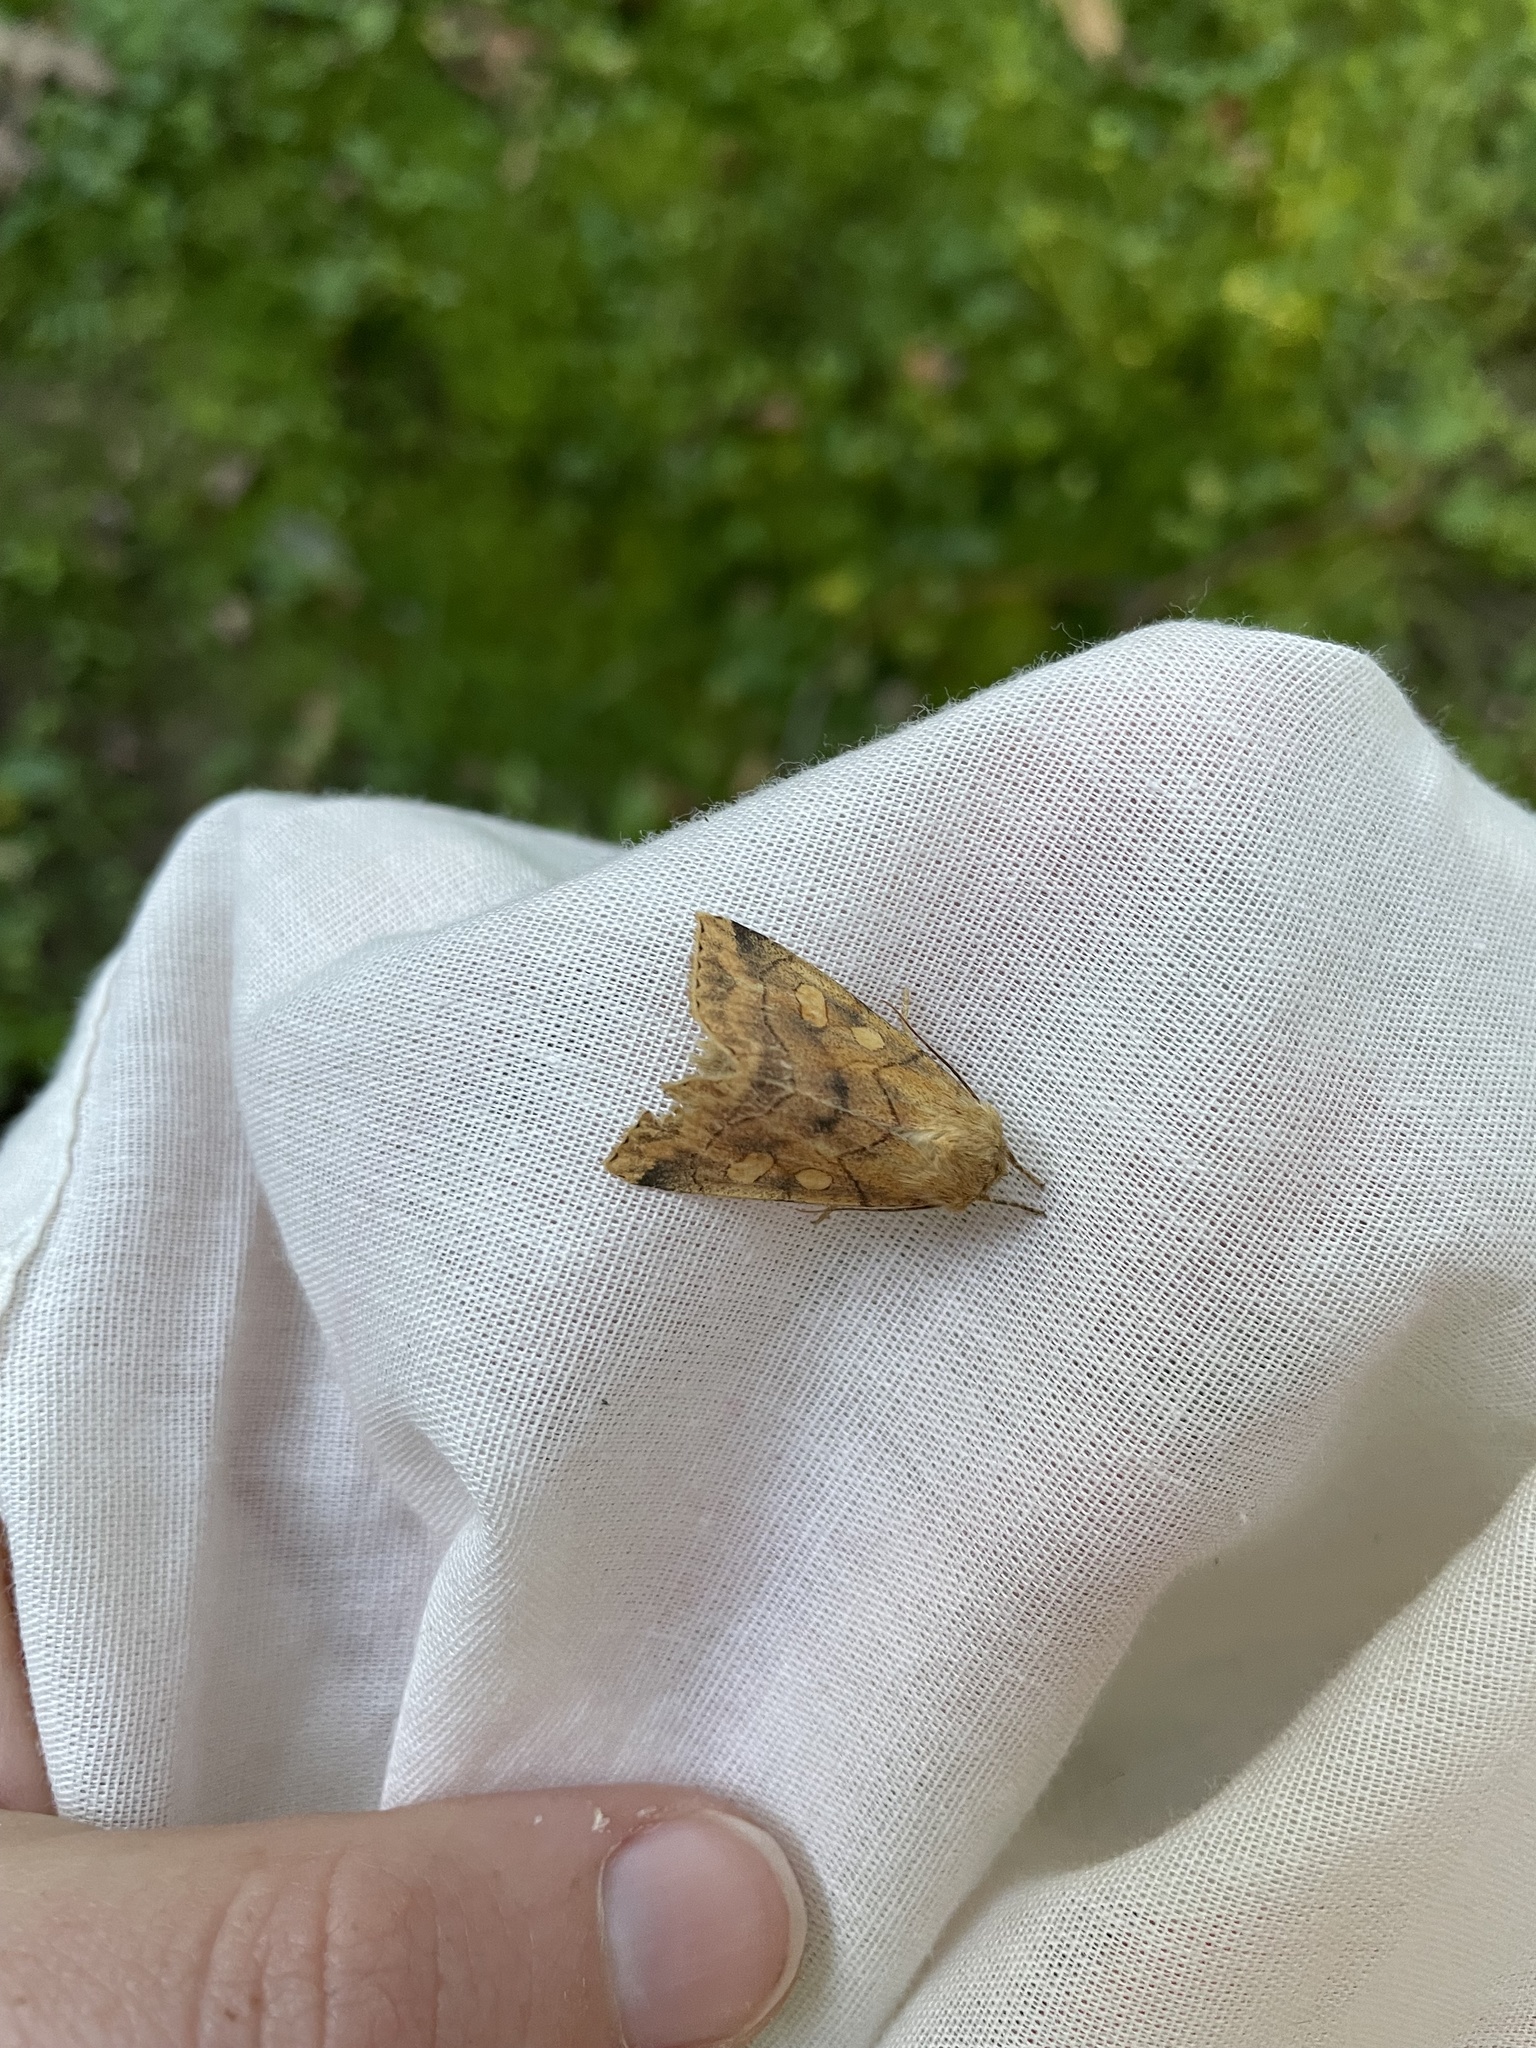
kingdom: Animalia
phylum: Arthropoda
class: Insecta
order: Lepidoptera
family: Noctuidae
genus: Enargia
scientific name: Enargia decolor
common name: Aspen twoleaf tier moth
